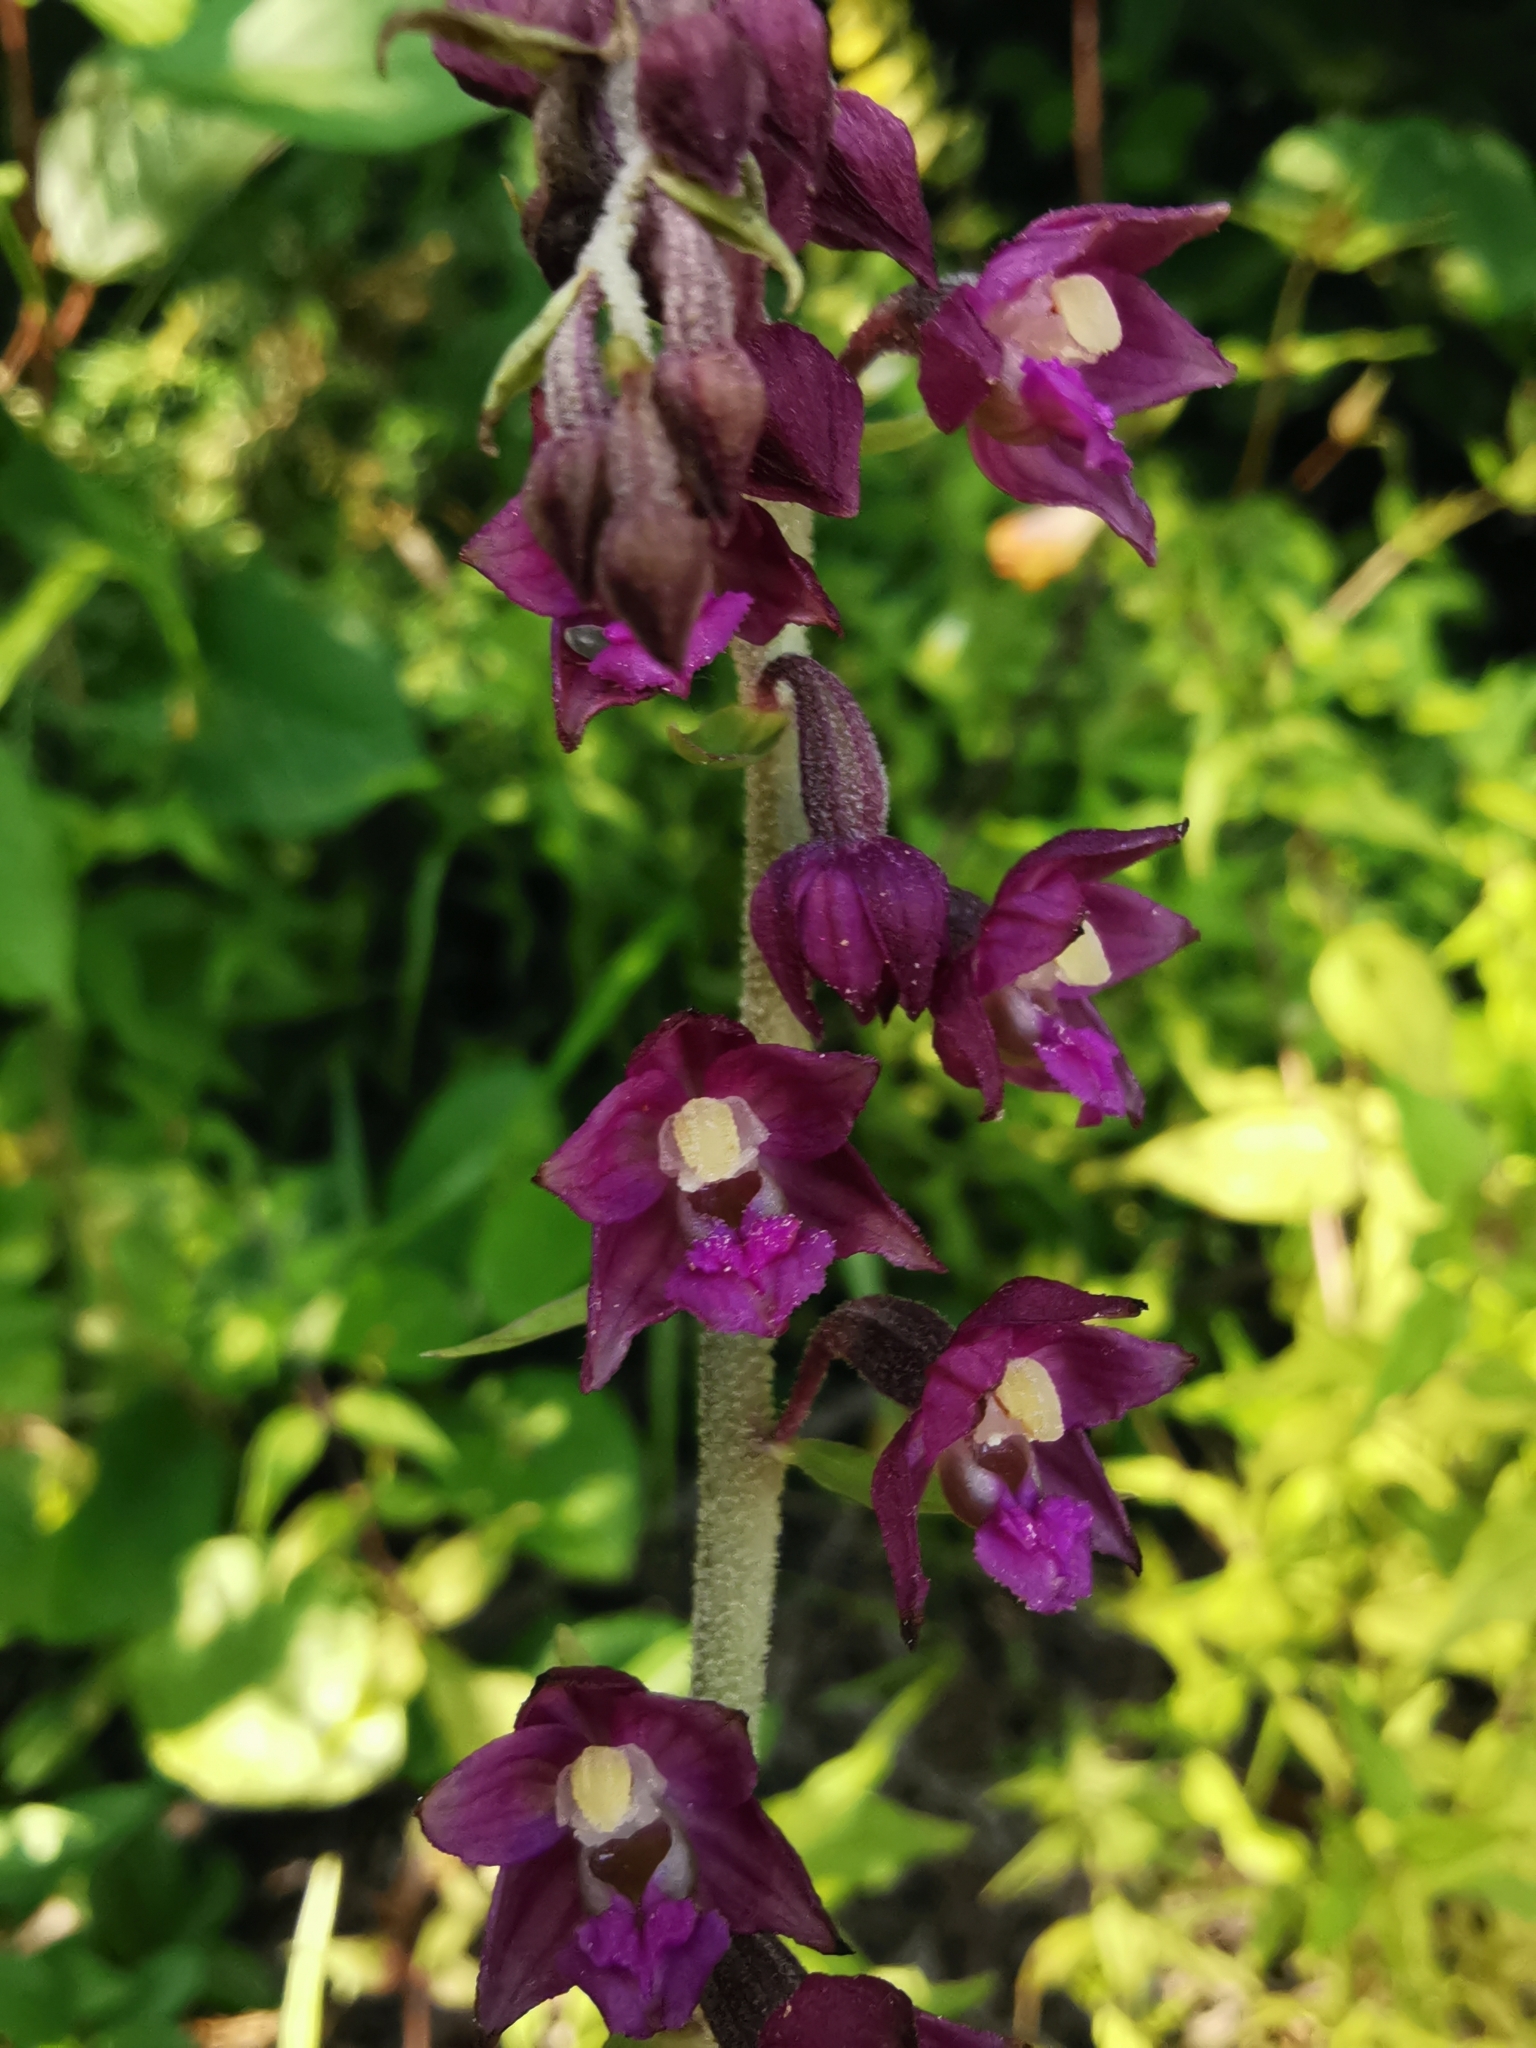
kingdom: Plantae
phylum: Tracheophyta
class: Liliopsida
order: Asparagales
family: Orchidaceae
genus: Epipactis
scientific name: Epipactis atrorubens
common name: Dark-red helleborine
